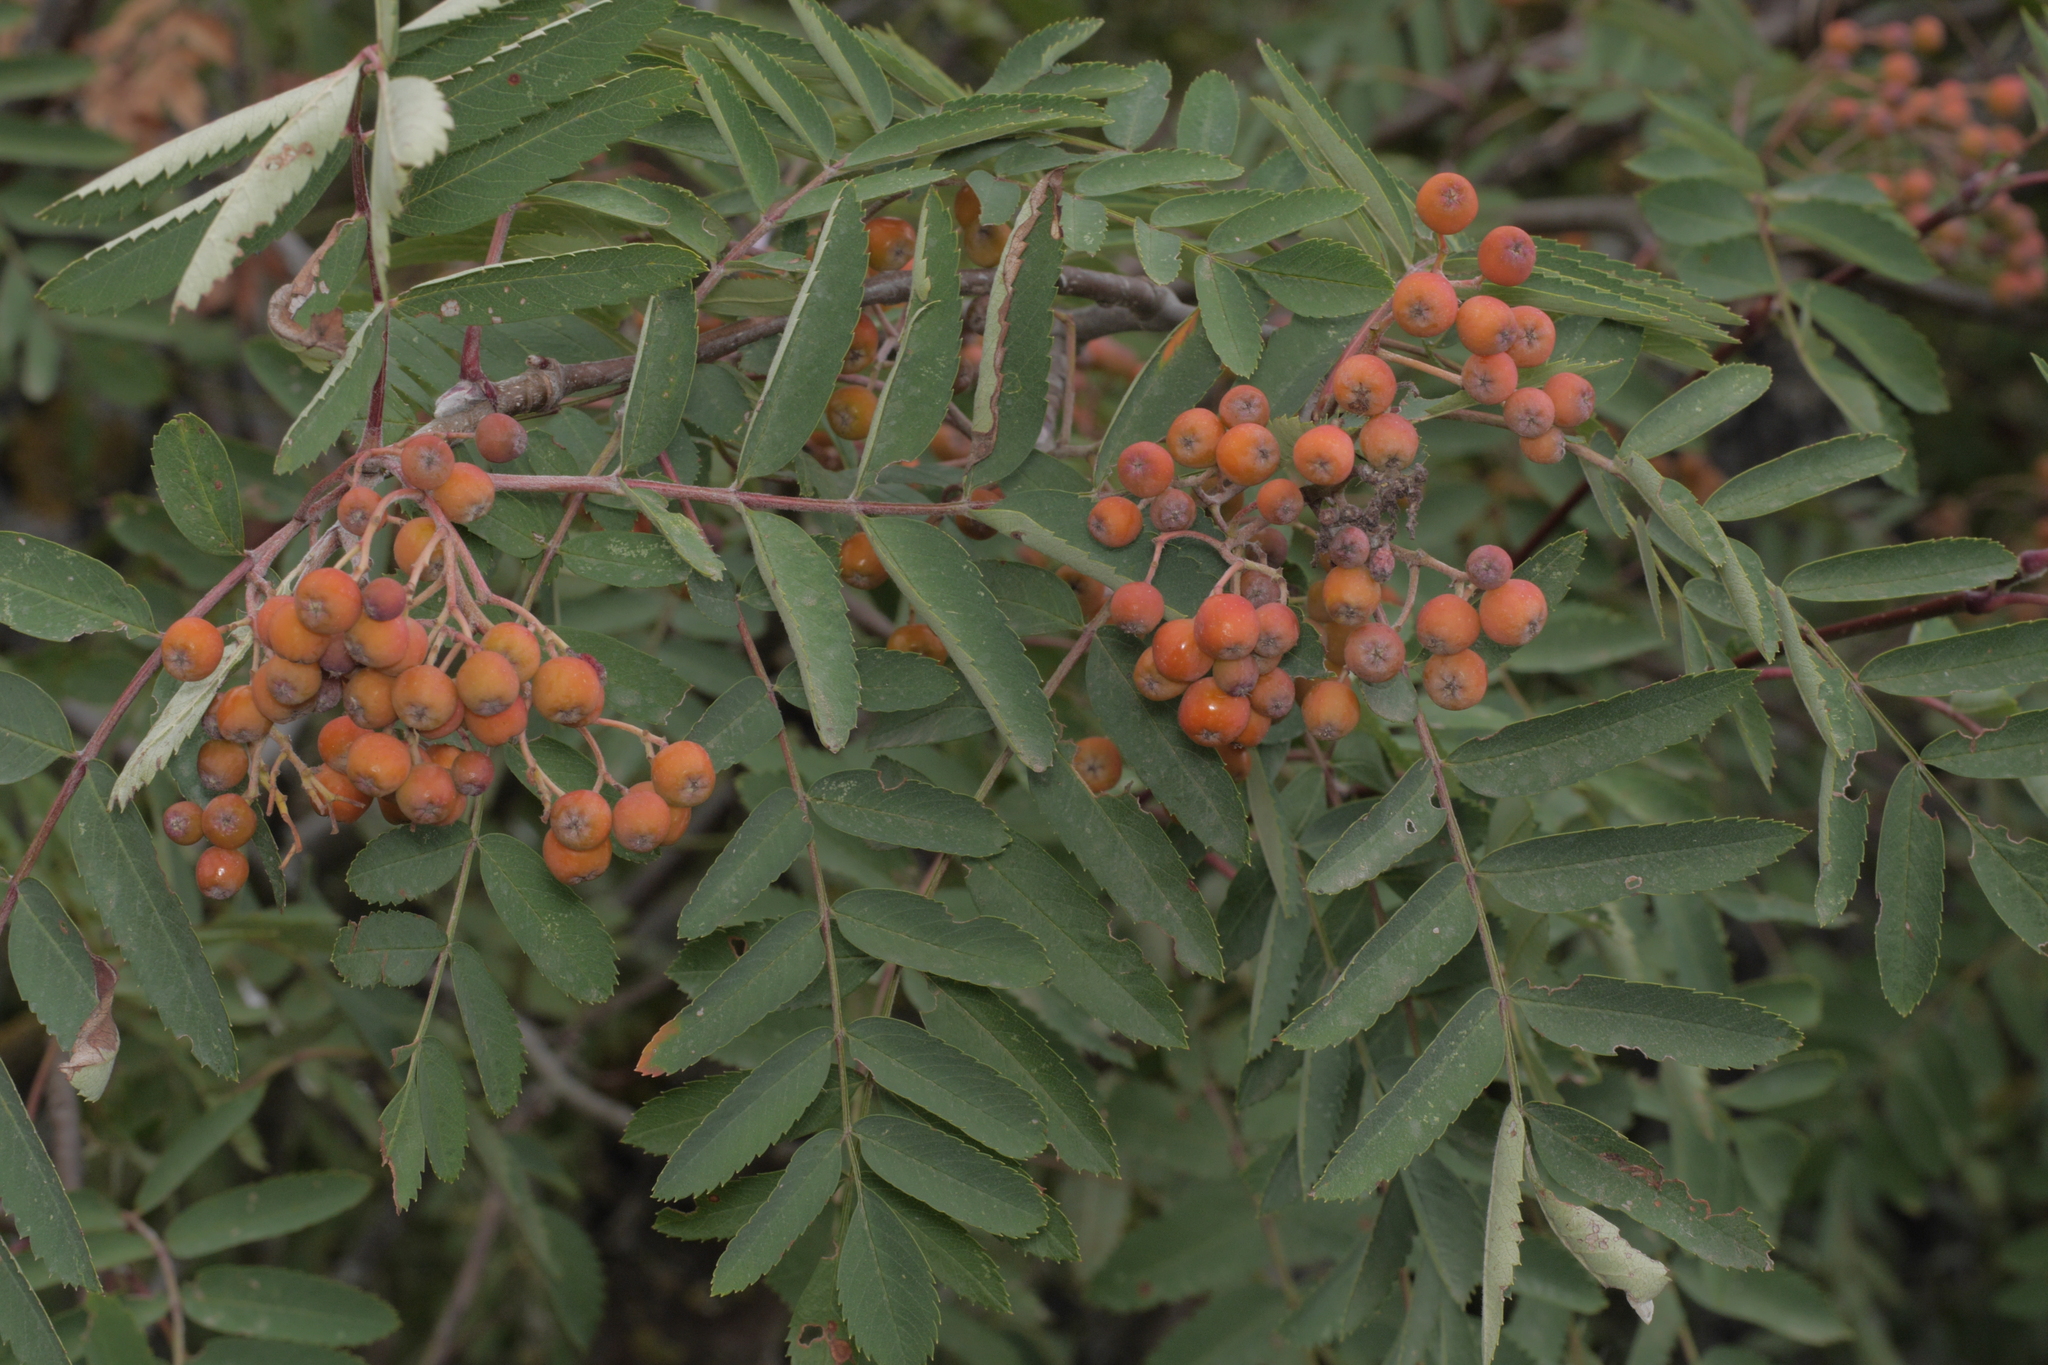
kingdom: Plantae
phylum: Tracheophyta
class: Magnoliopsida
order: Rosales
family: Rosaceae
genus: Sorbus
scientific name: Sorbus aucuparia
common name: Rowan
